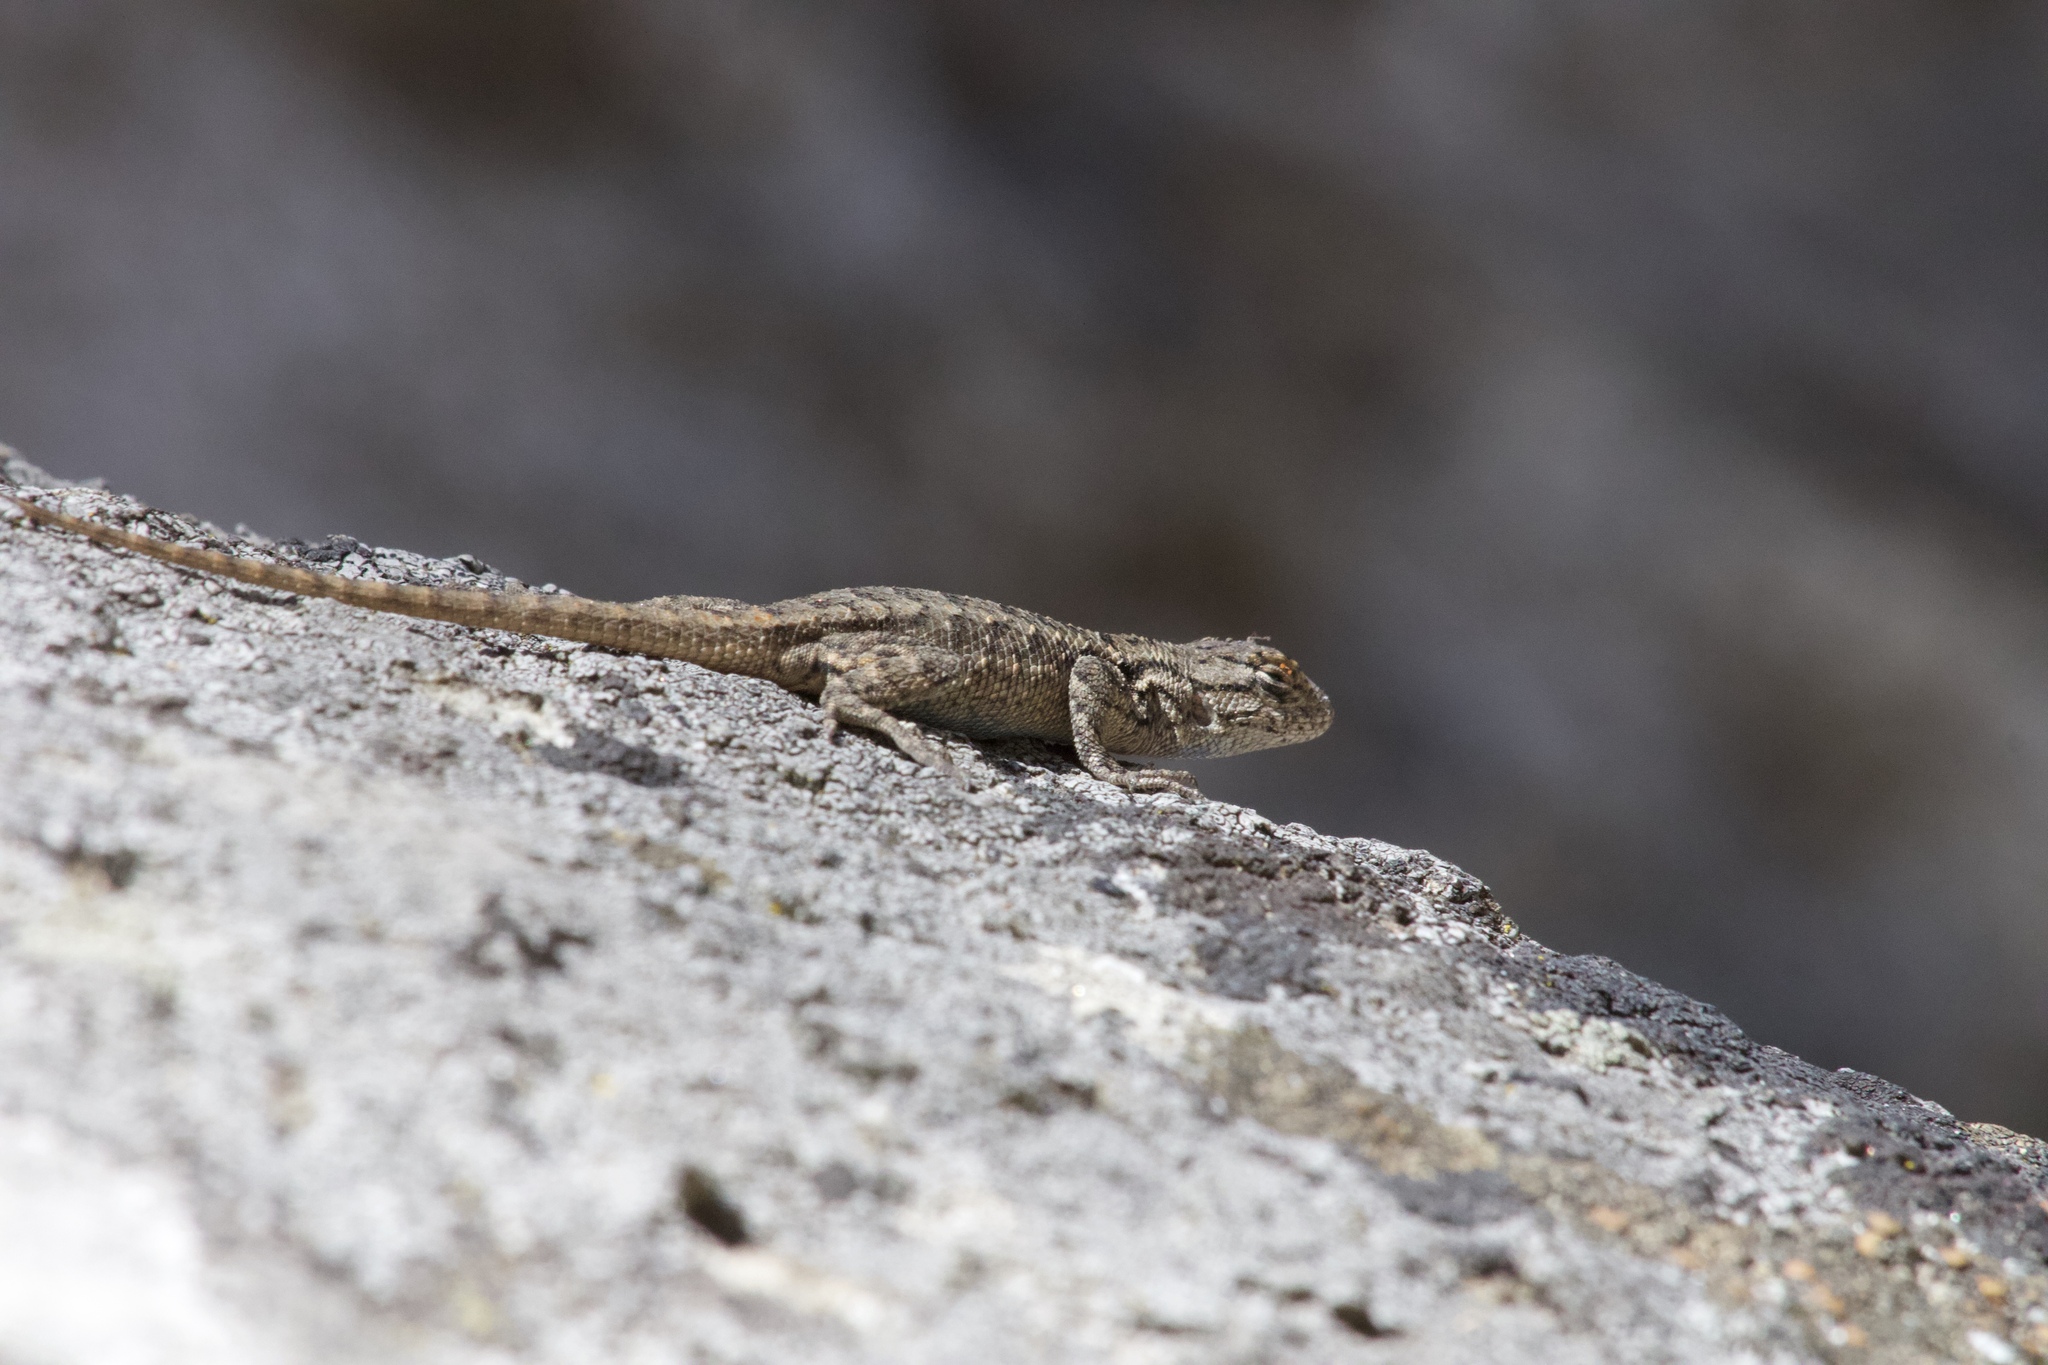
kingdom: Animalia
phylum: Chordata
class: Squamata
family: Phrynosomatidae
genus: Sceloporus
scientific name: Sceloporus occidentalis
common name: Western fence lizard
